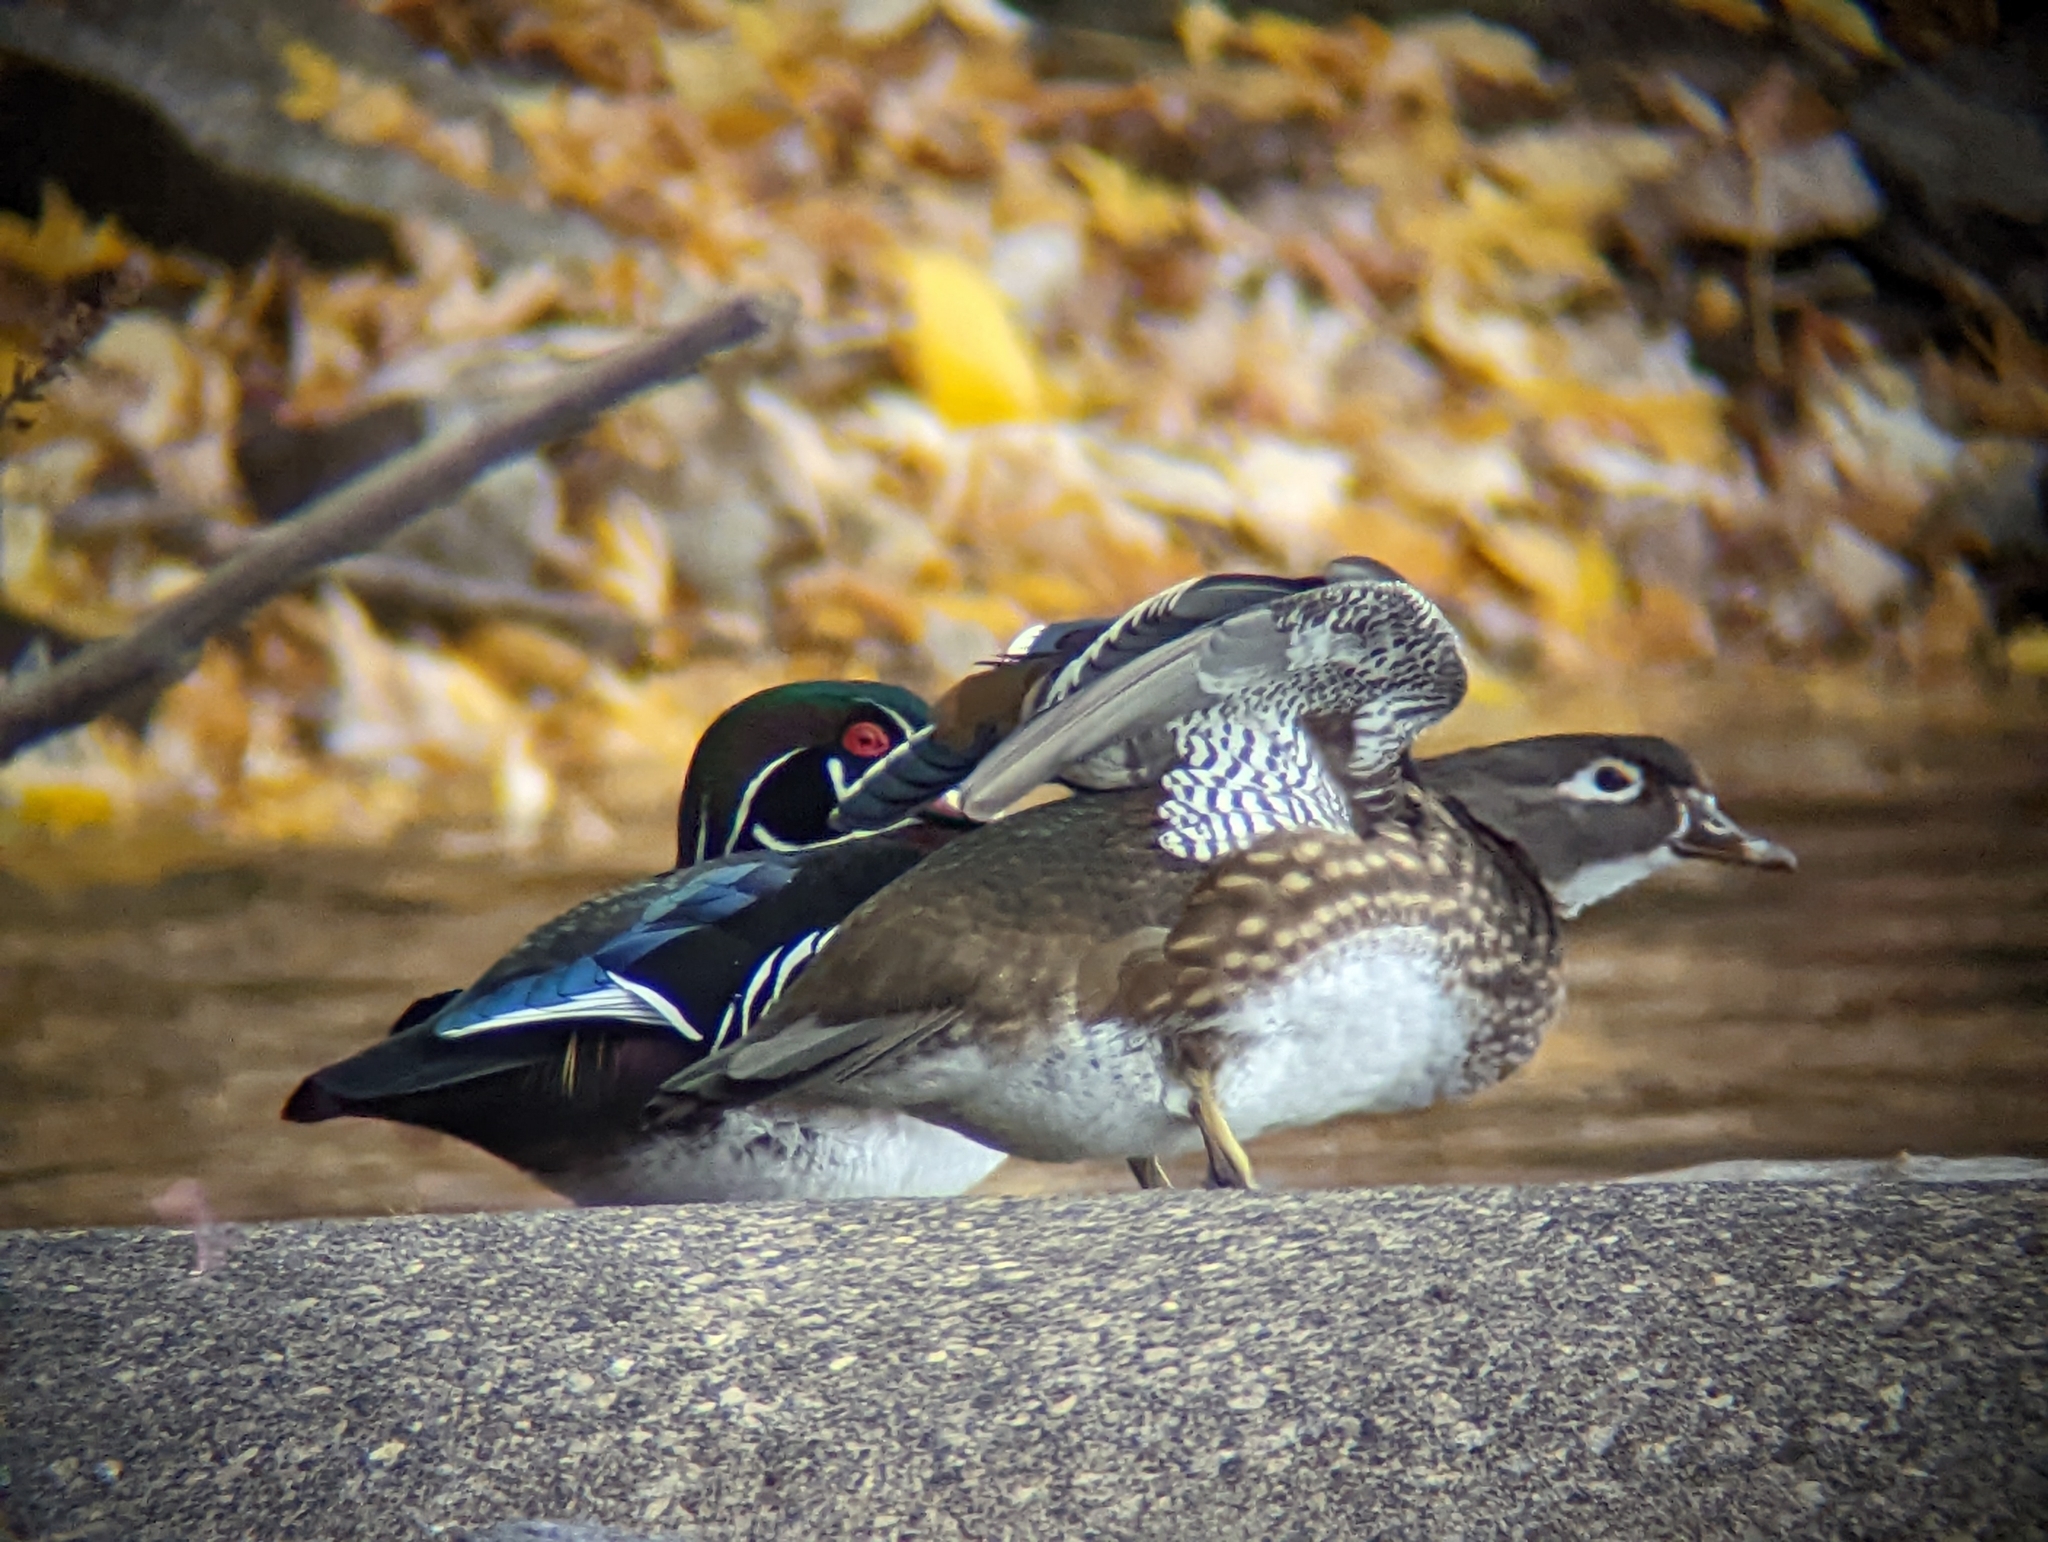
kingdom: Animalia
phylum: Chordata
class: Aves
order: Anseriformes
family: Anatidae
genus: Aix
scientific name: Aix sponsa
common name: Wood duck
